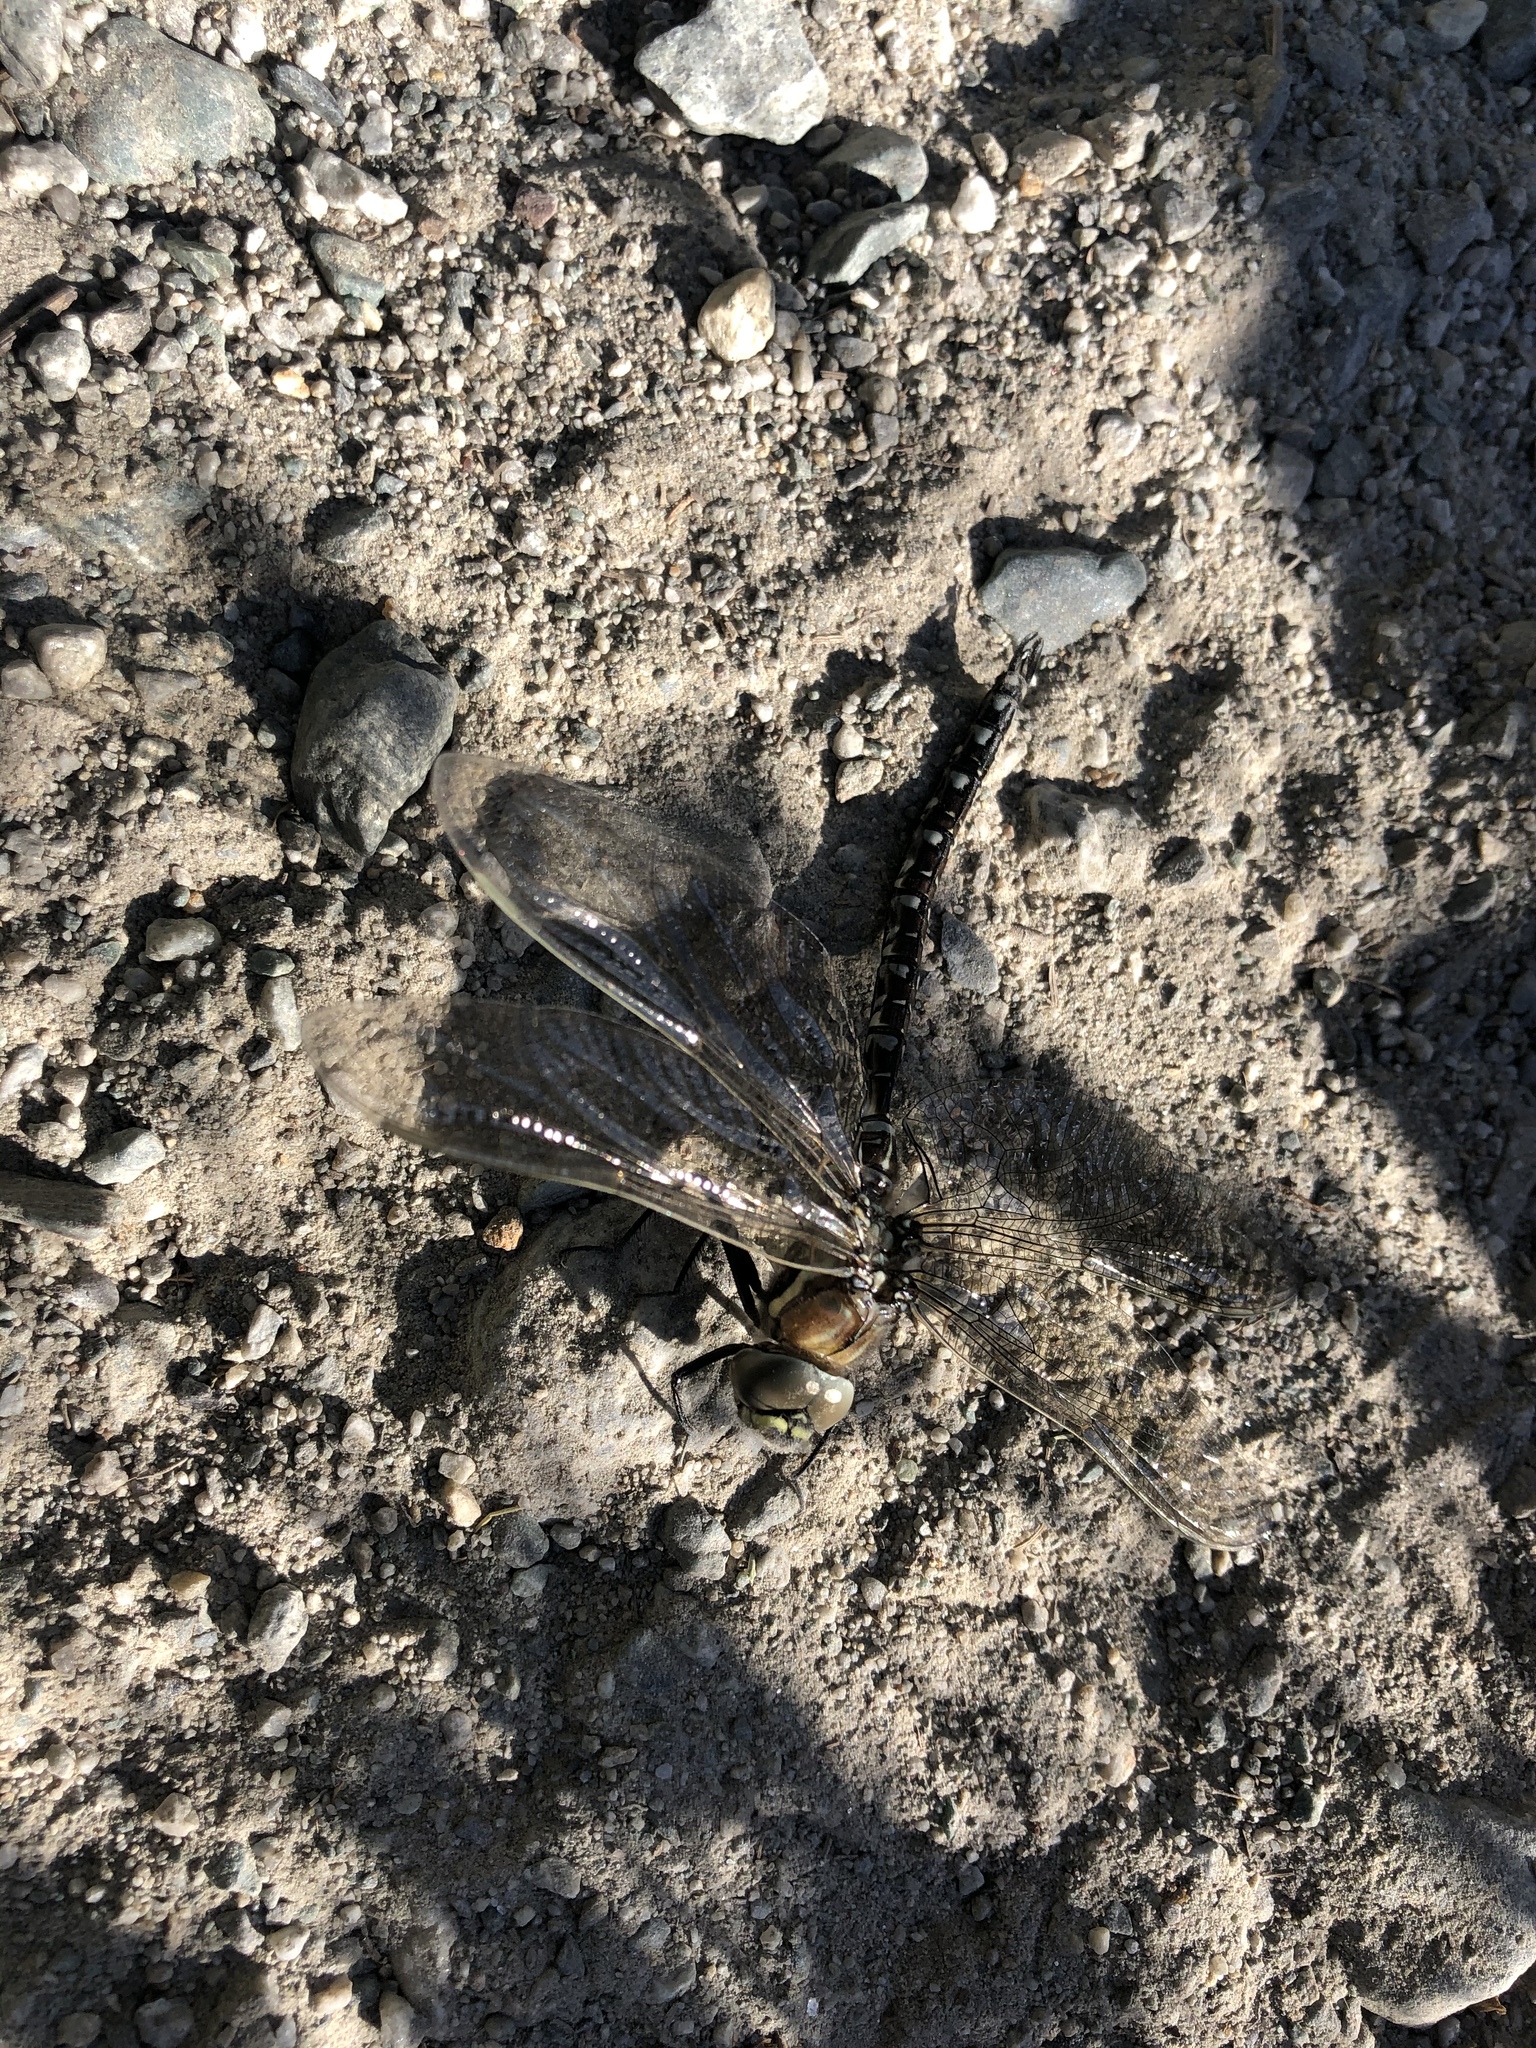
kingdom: Animalia
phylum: Arthropoda
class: Insecta
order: Odonata
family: Aeshnidae
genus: Aeshna
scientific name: Aeshna juncea
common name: Moorland hawker
